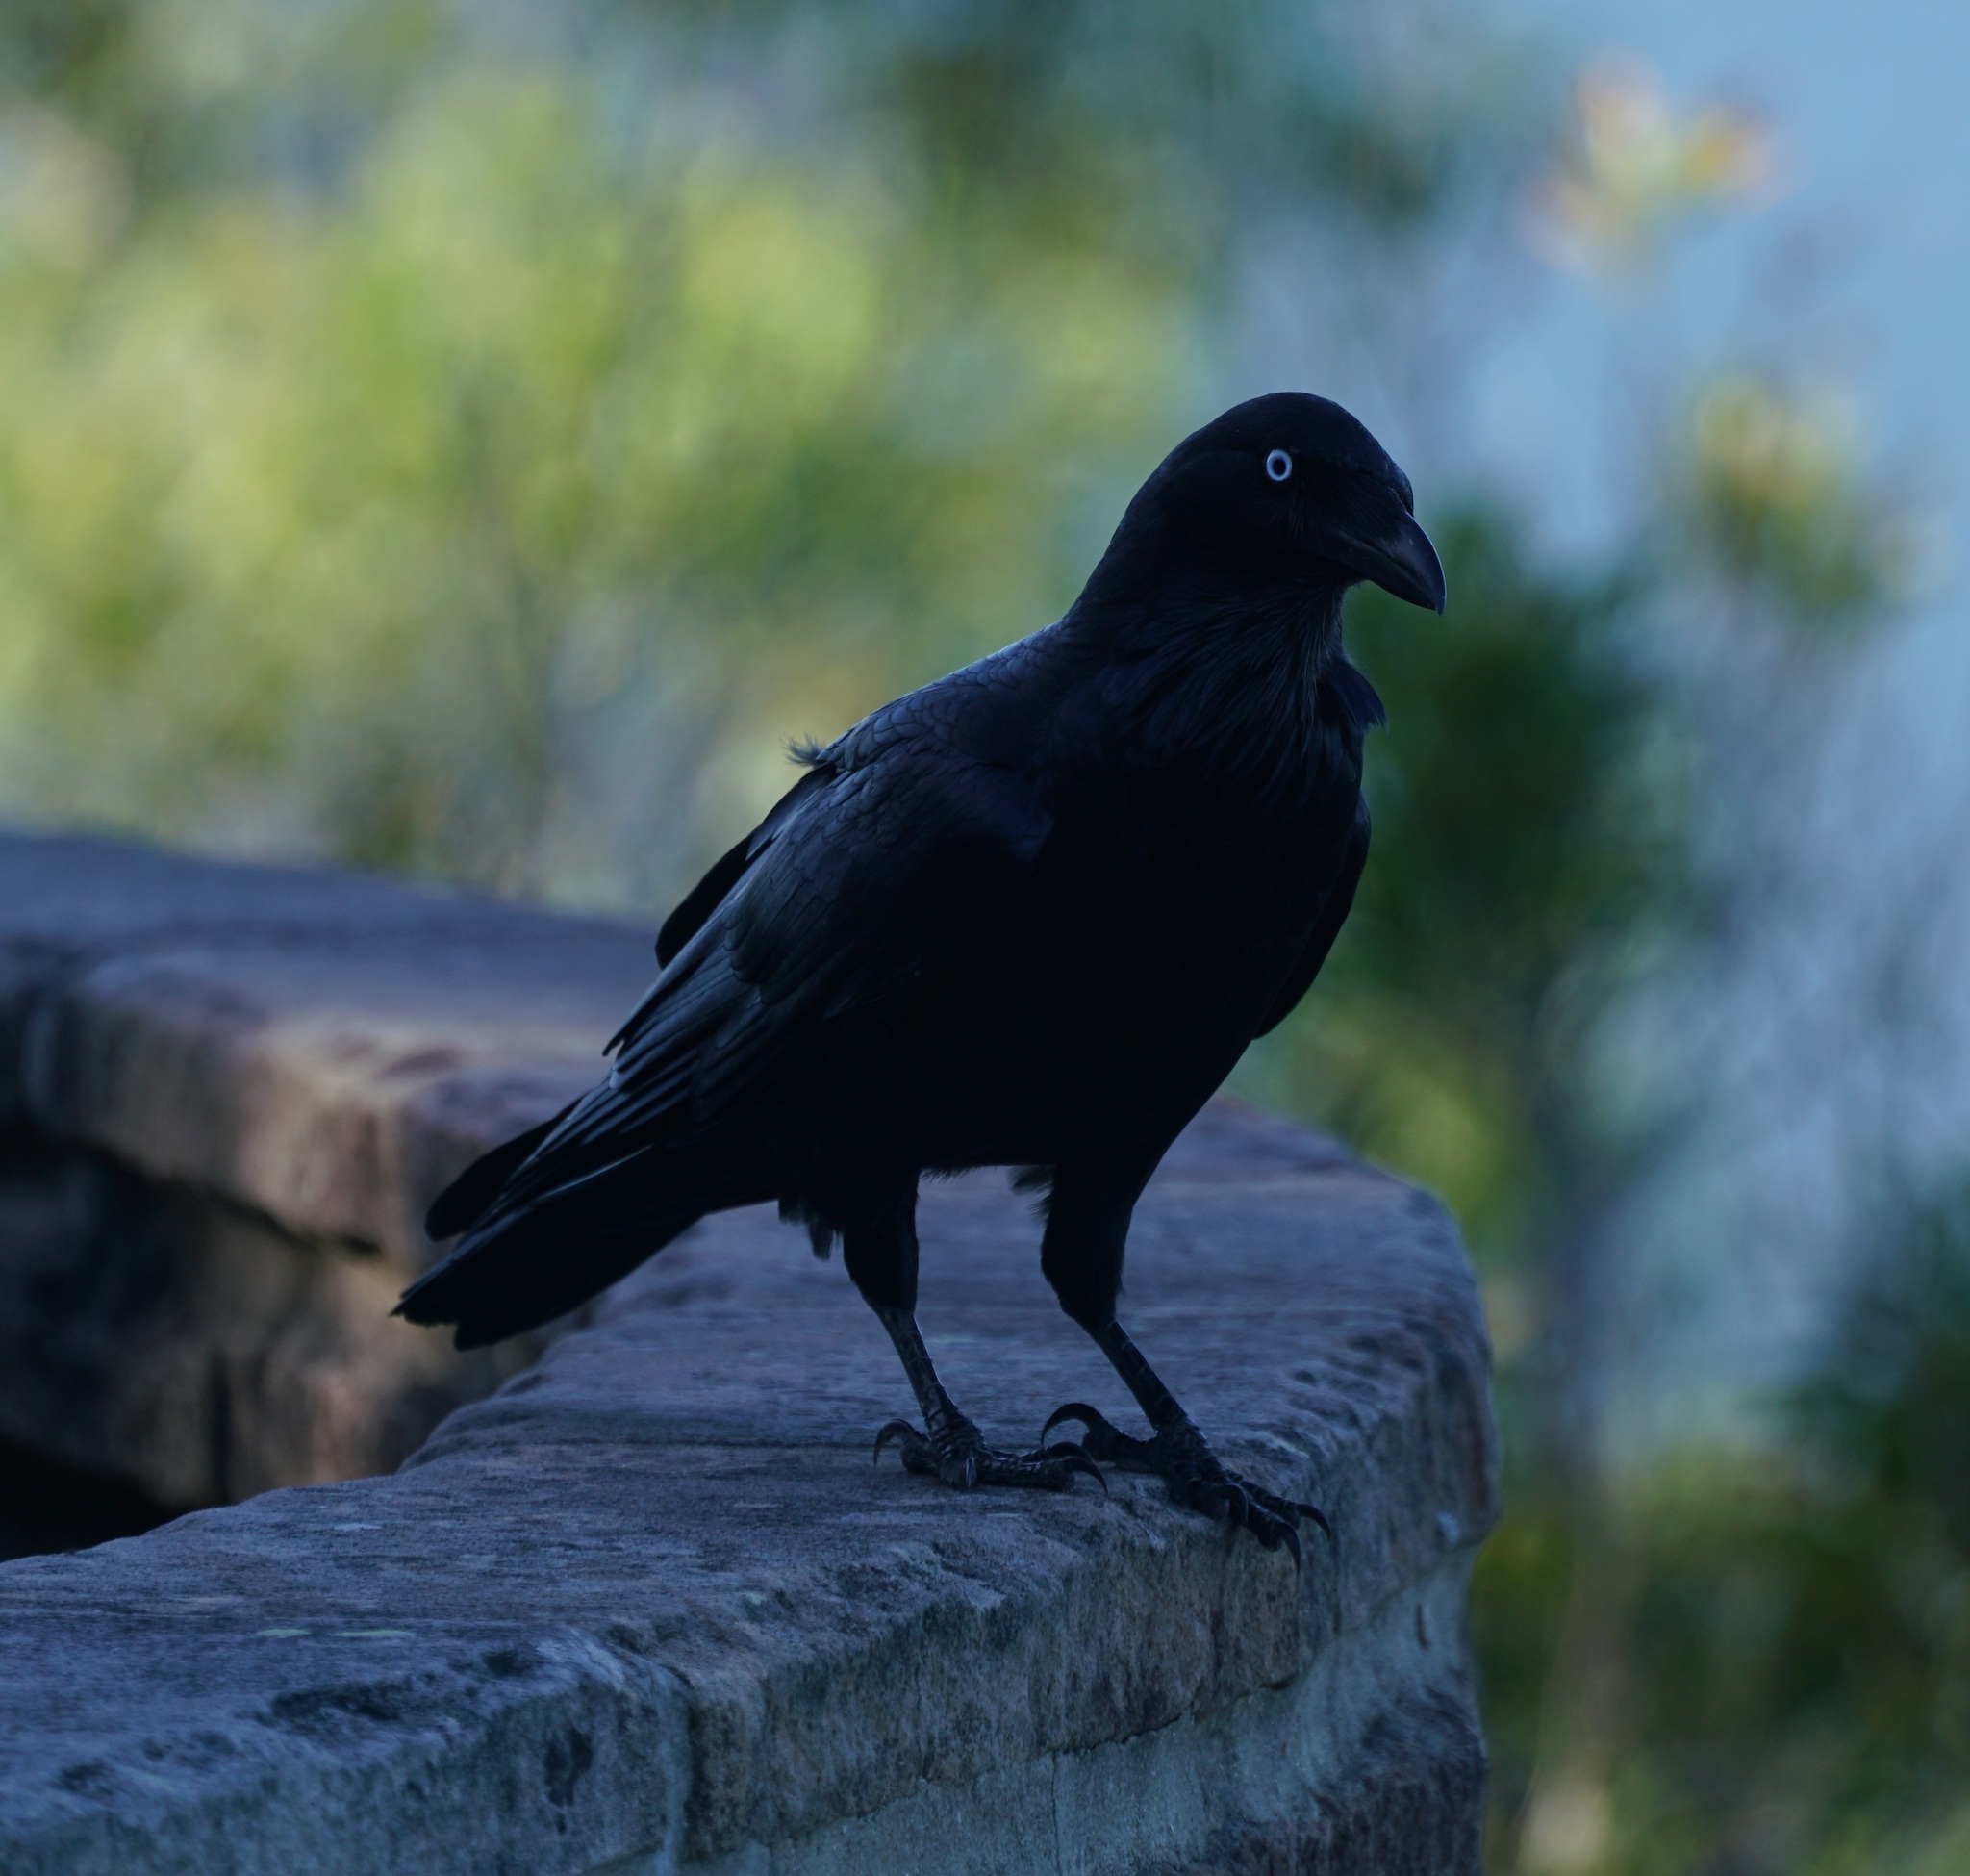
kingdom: Animalia
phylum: Chordata
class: Aves
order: Passeriformes
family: Corvidae
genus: Corvus
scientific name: Corvus coronoides
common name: Australian raven
